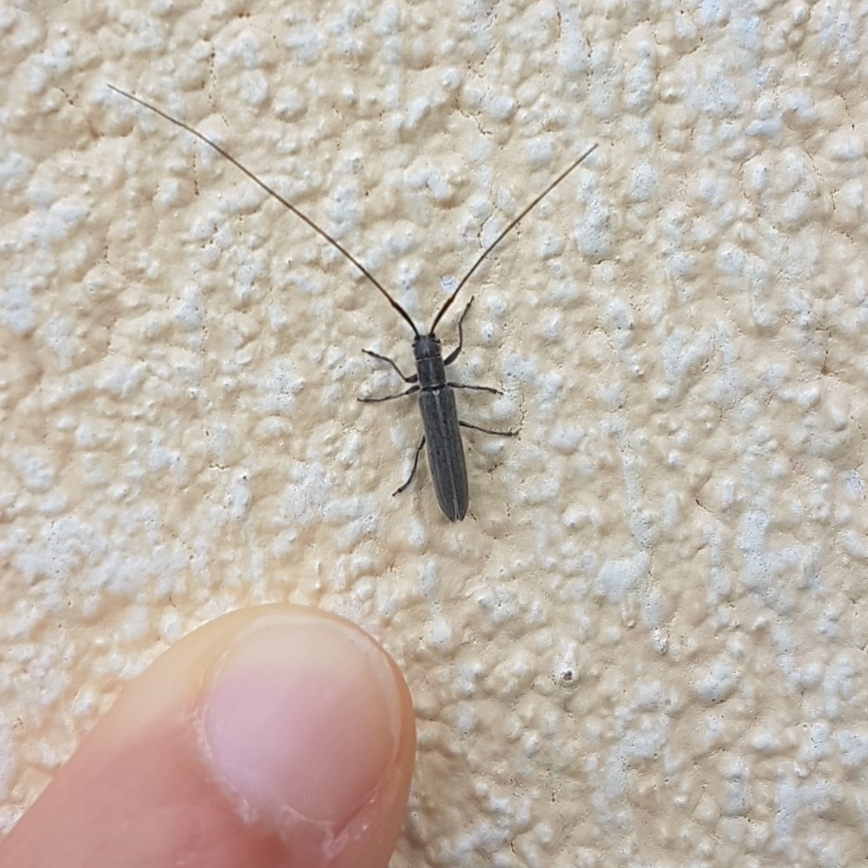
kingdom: Animalia
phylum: Arthropoda
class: Insecta
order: Coleoptera
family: Cerambycidae
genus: Calamobius
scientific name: Calamobius filum
